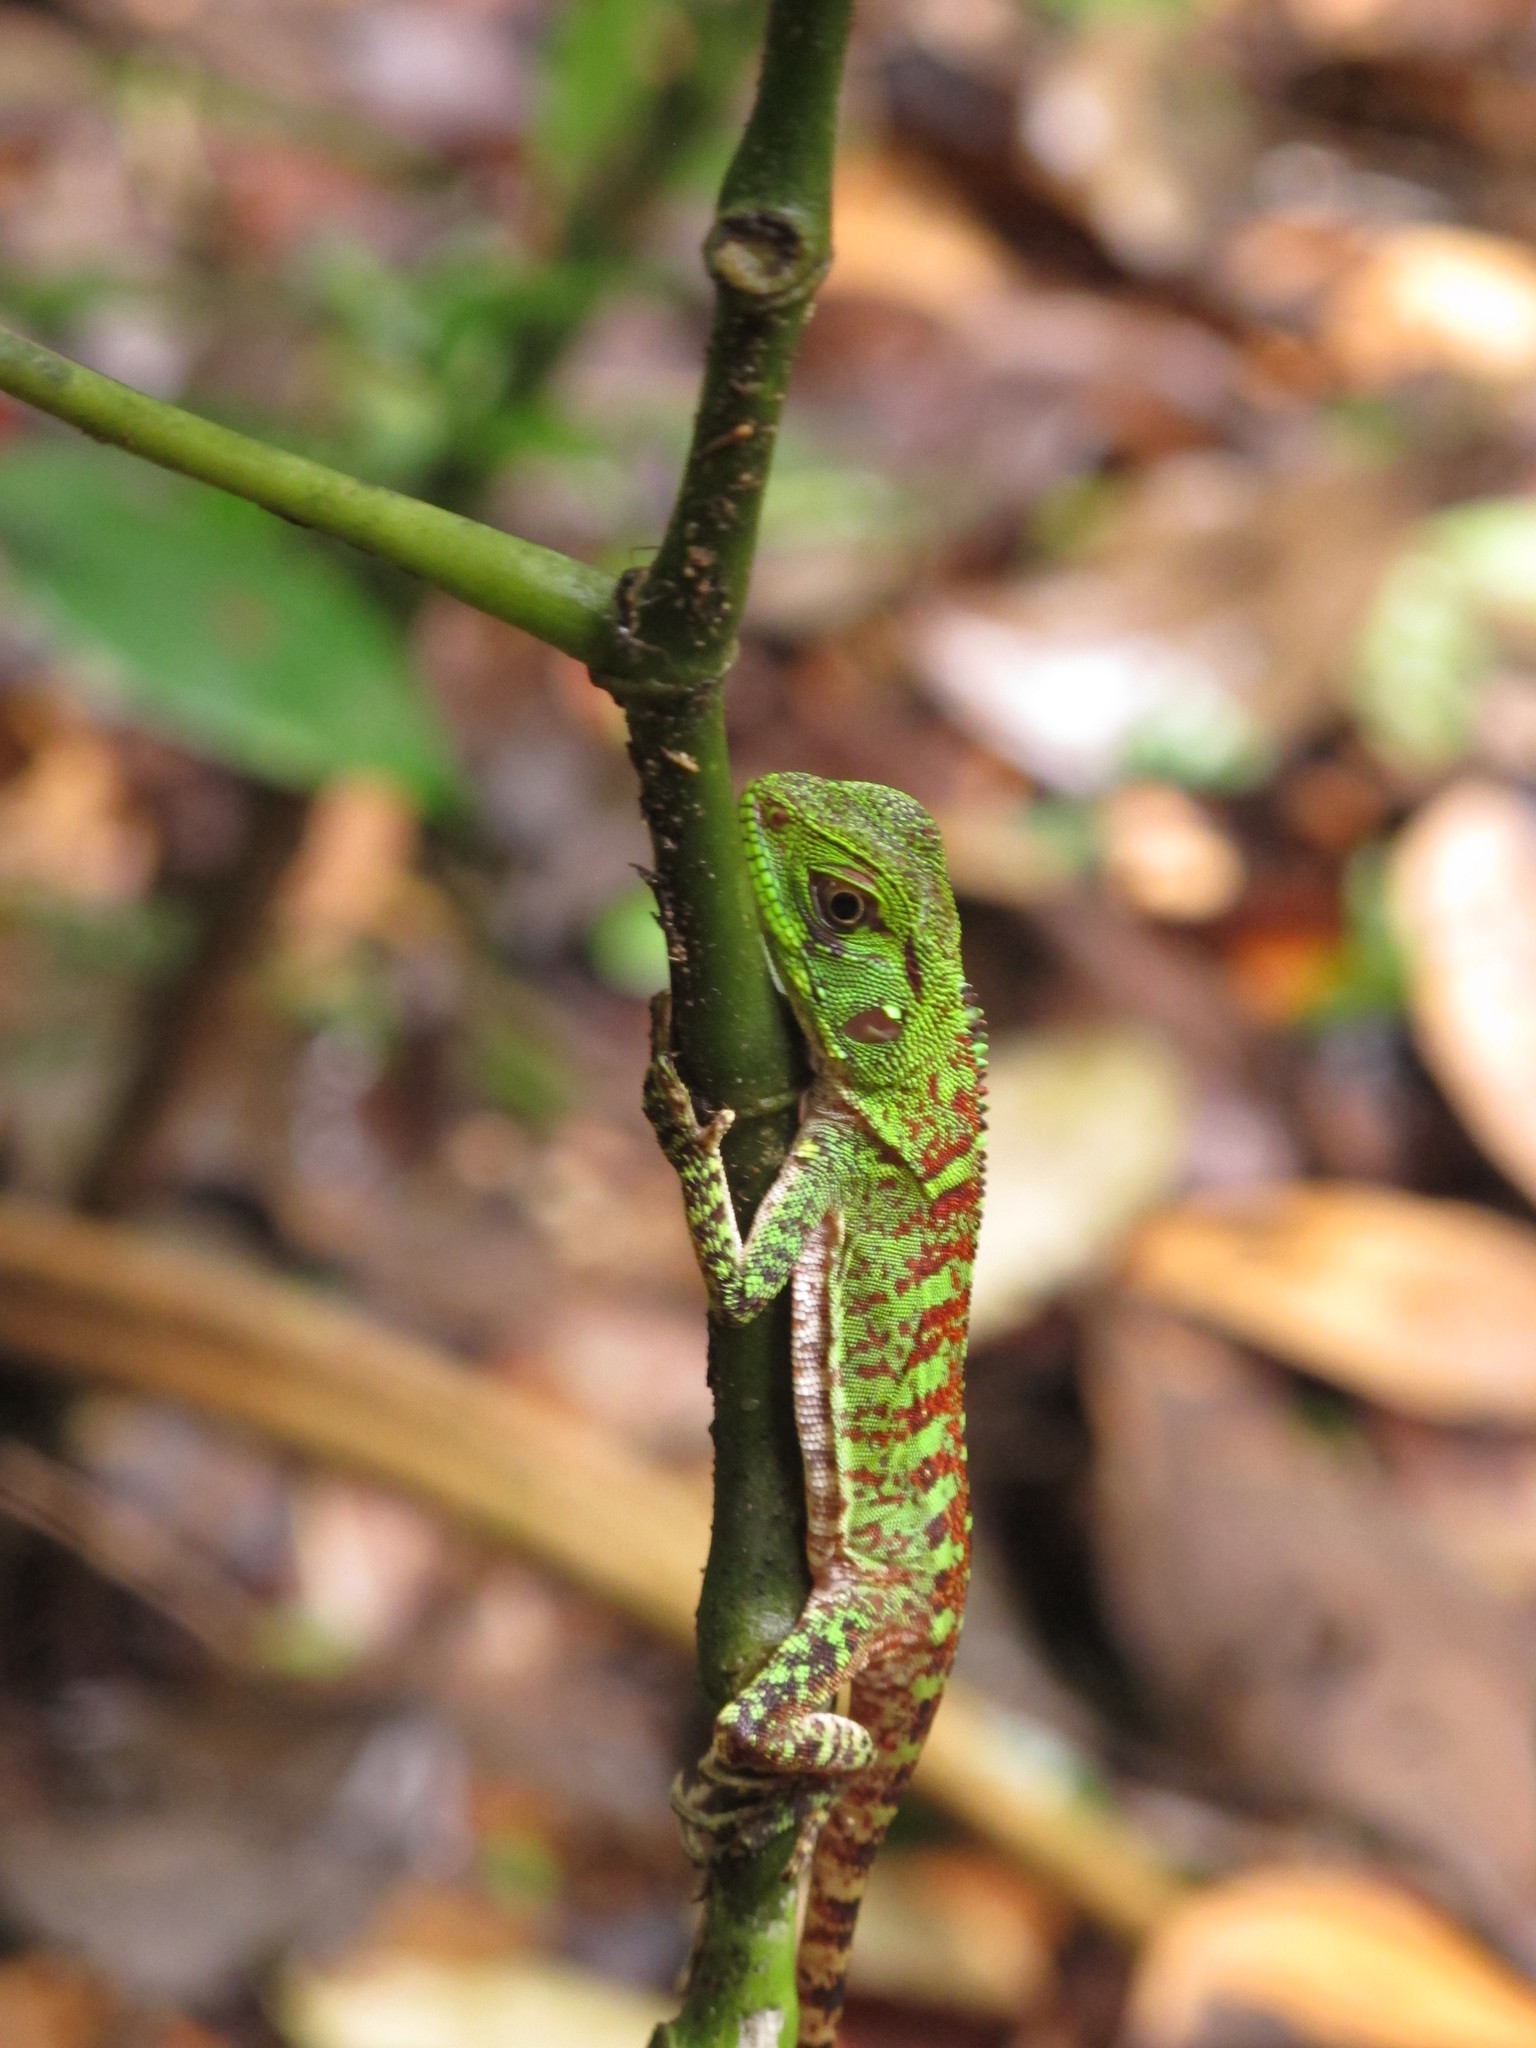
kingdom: Animalia
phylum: Chordata
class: Squamata
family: Hoplocercidae
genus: Enyalioides
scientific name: Enyalioides laticeps
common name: Guichenot's dwarf iguana
